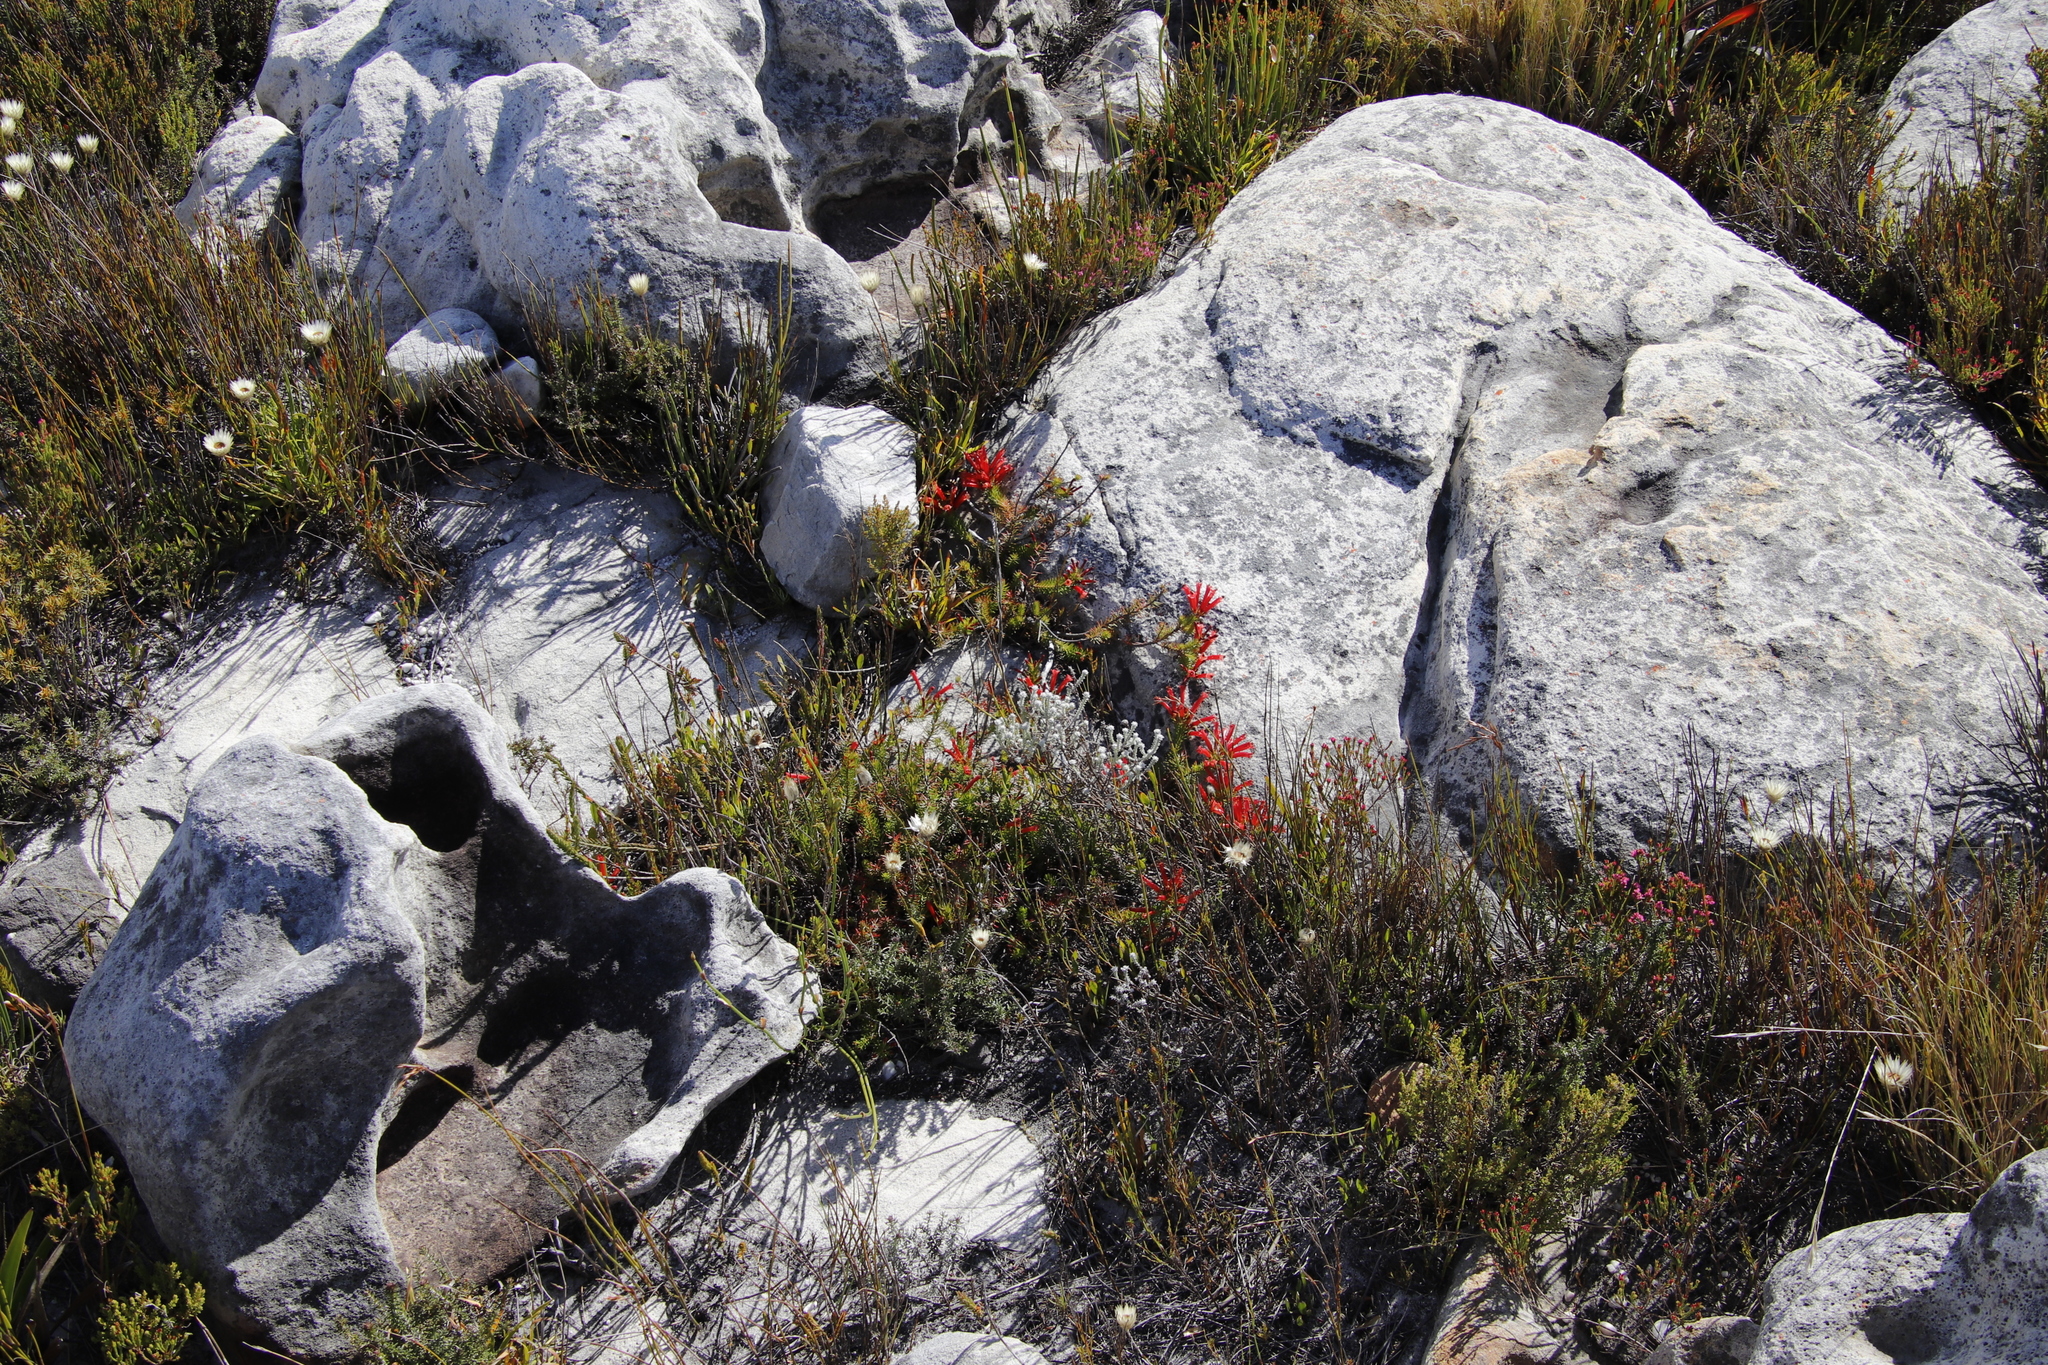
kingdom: Plantae
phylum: Tracheophyta
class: Magnoliopsida
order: Ericales
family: Ericaceae
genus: Erica
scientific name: Erica nevillei
